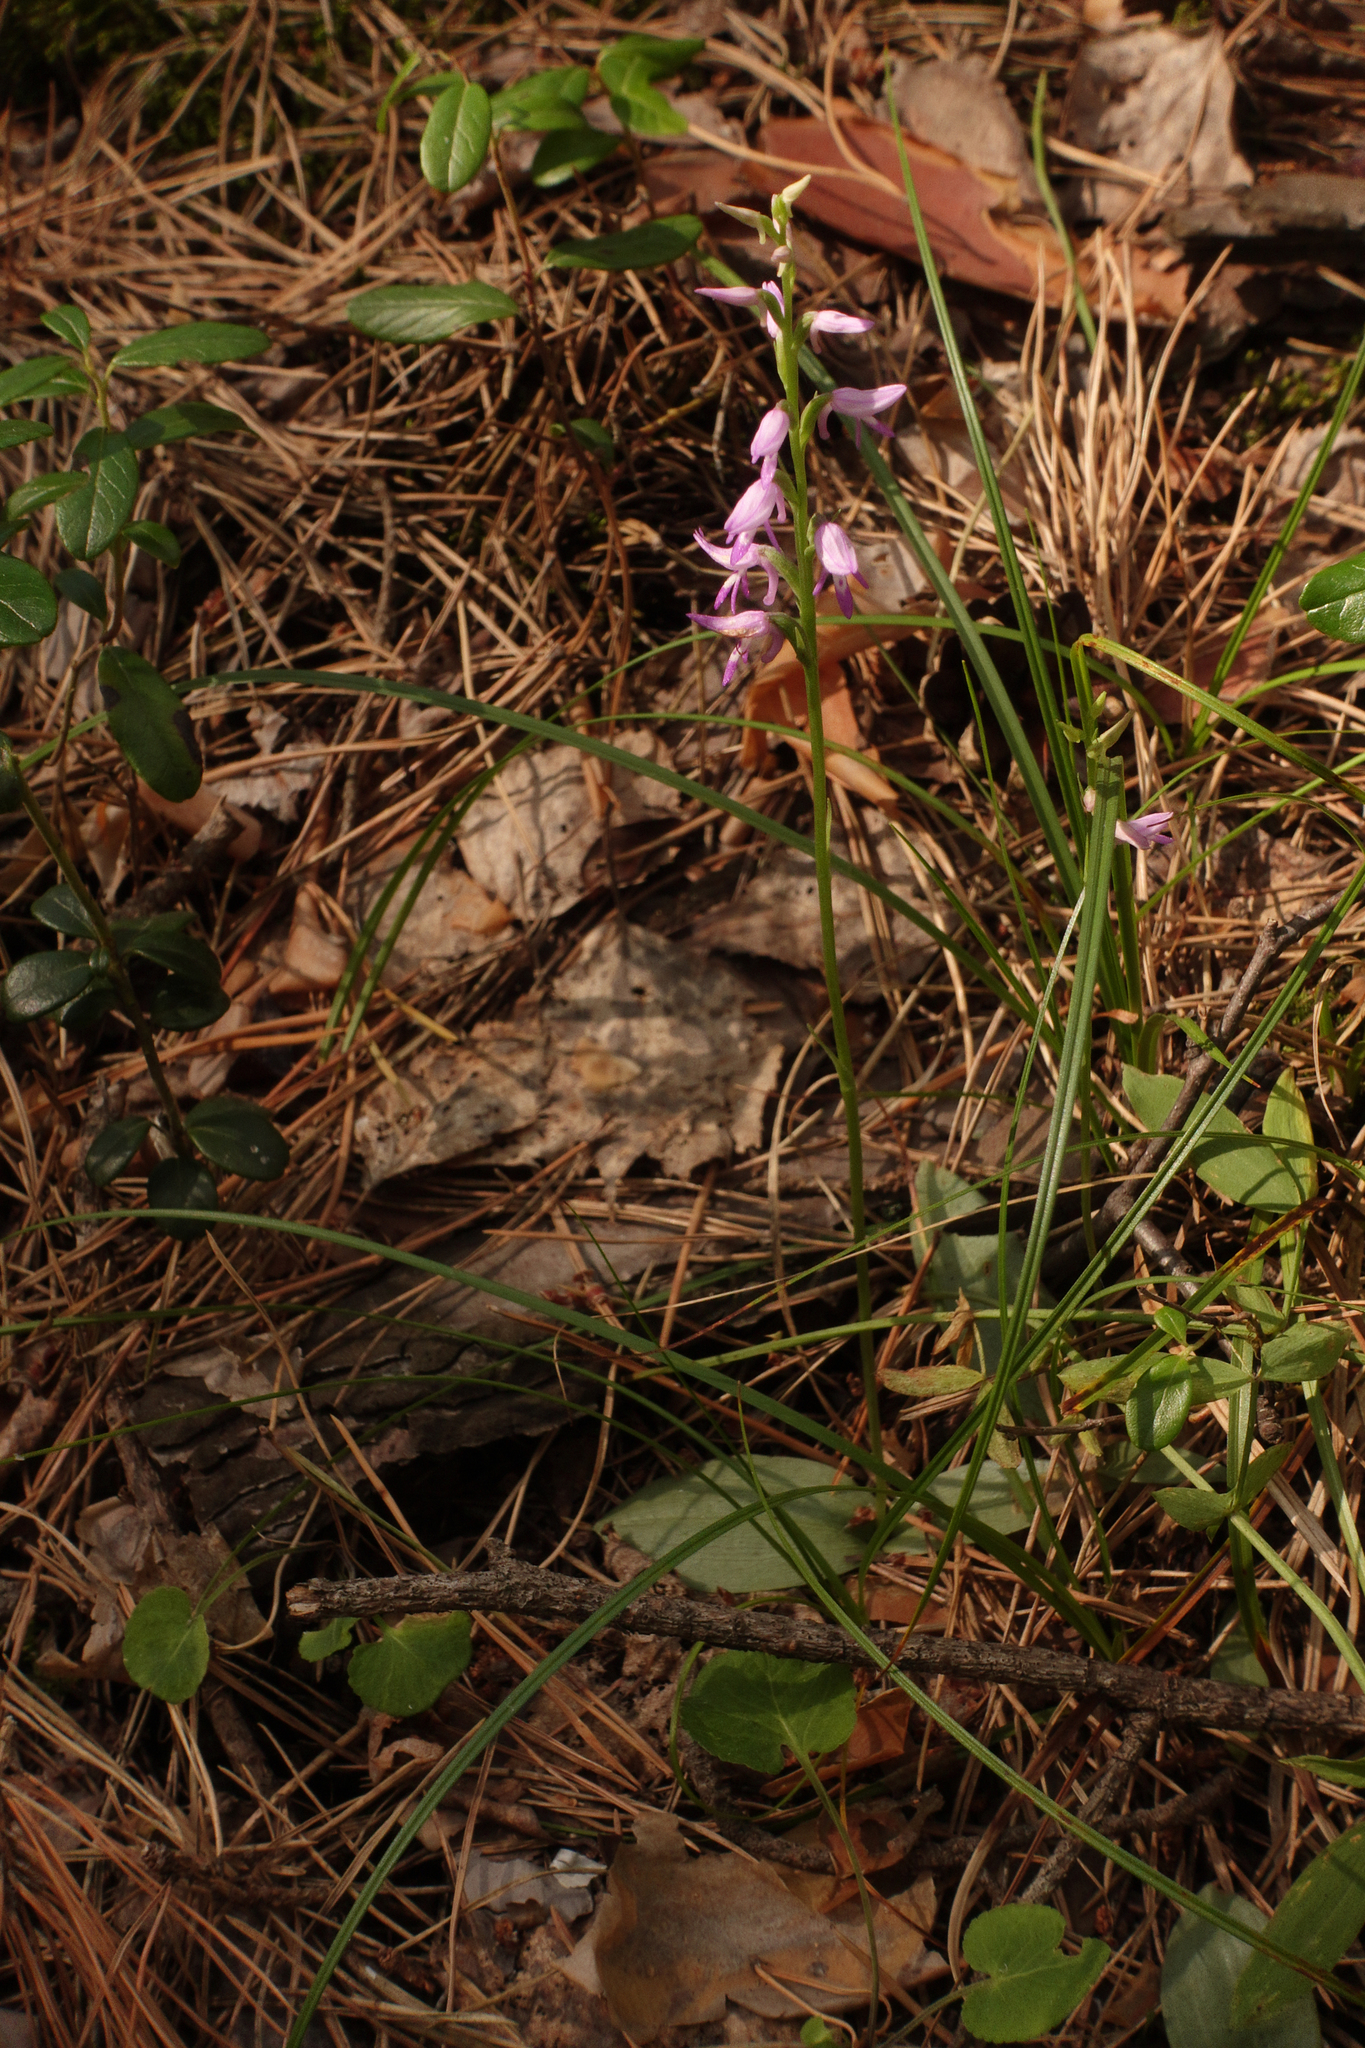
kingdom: Plantae
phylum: Tracheophyta
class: Liliopsida
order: Asparagales
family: Orchidaceae
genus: Hemipilia
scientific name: Hemipilia cucullata
